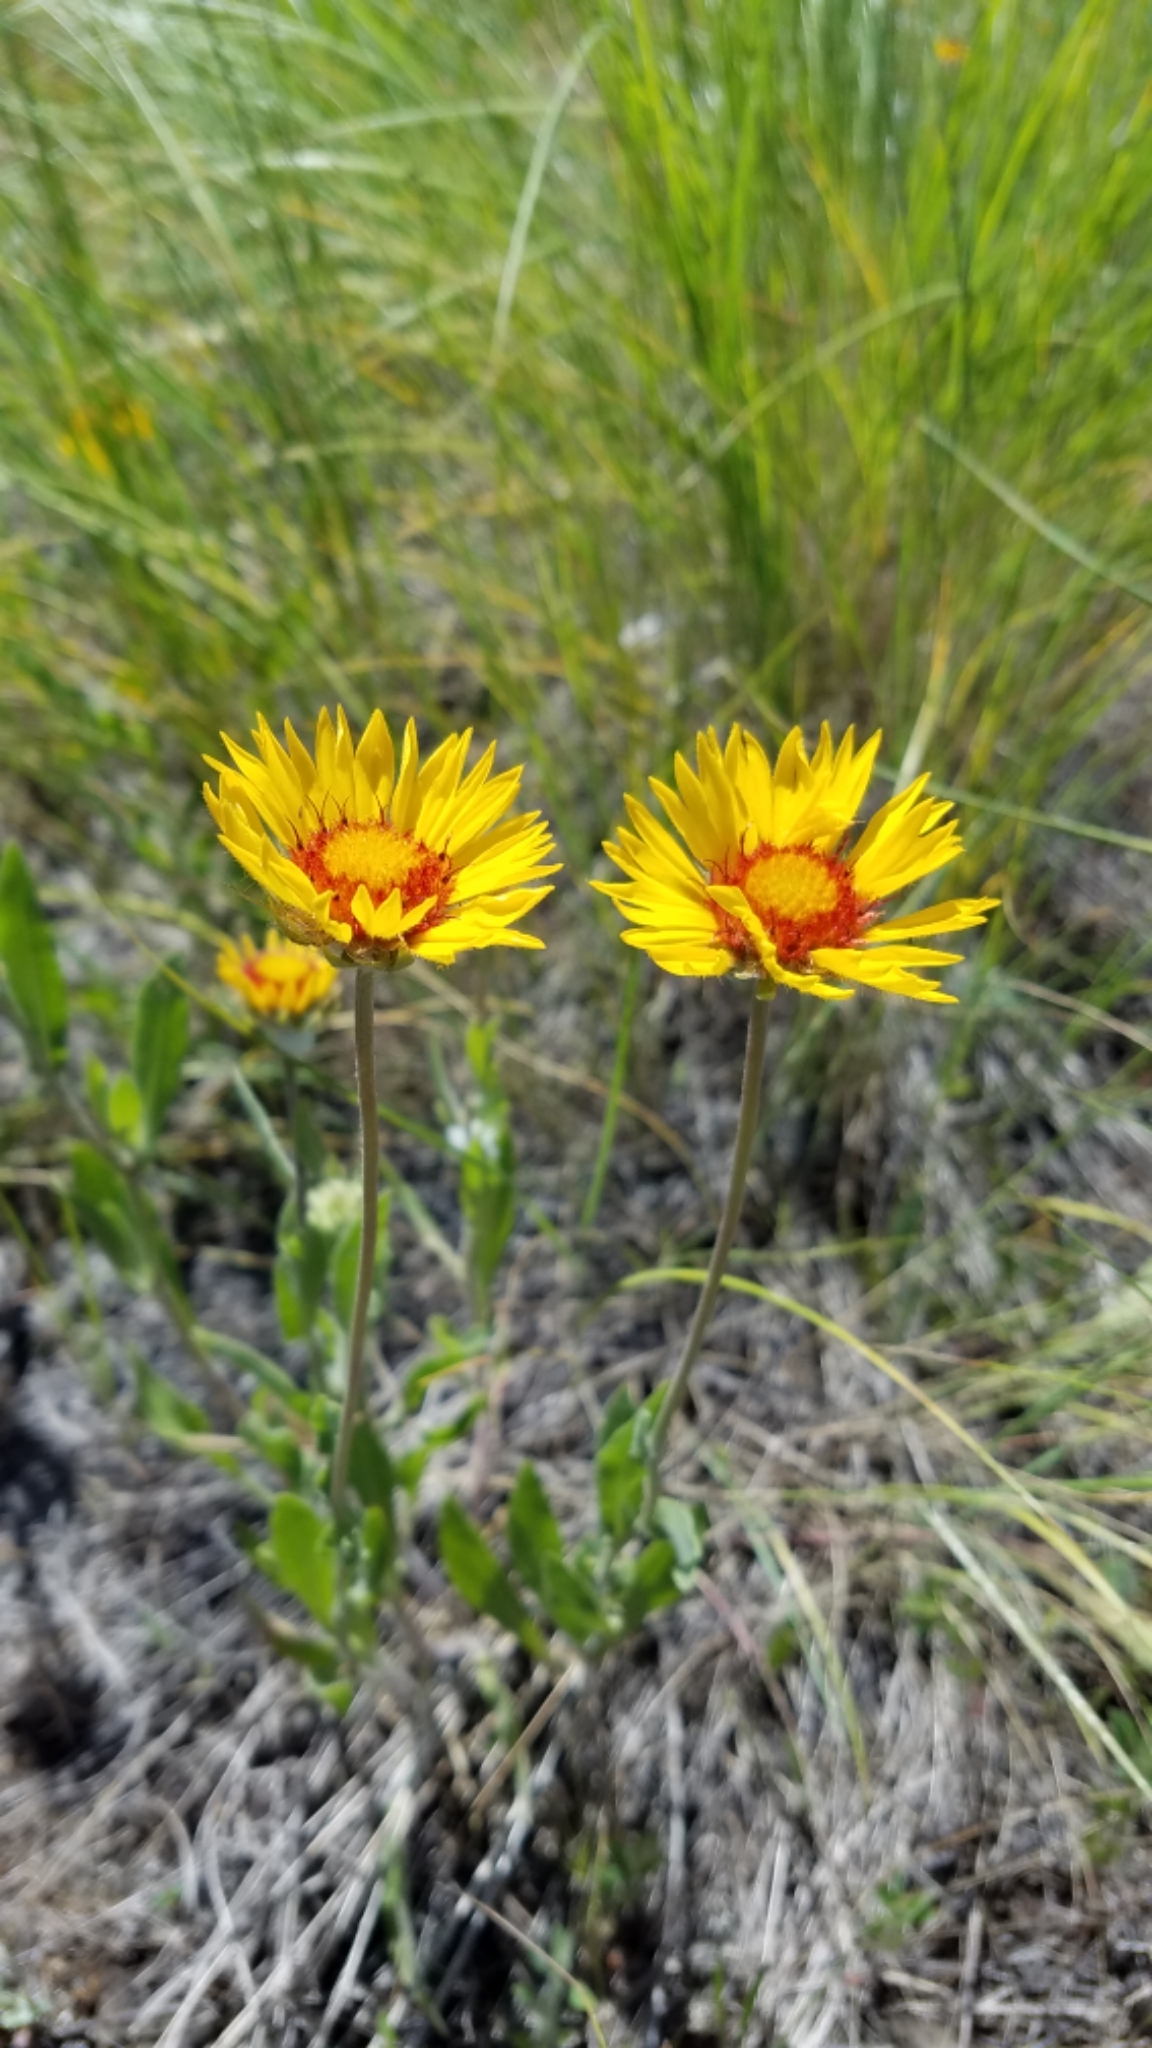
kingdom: Plantae
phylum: Tracheophyta
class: Magnoliopsida
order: Asterales
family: Asteraceae
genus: Gaillardia
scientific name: Gaillardia aristata
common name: Blanket-flower
